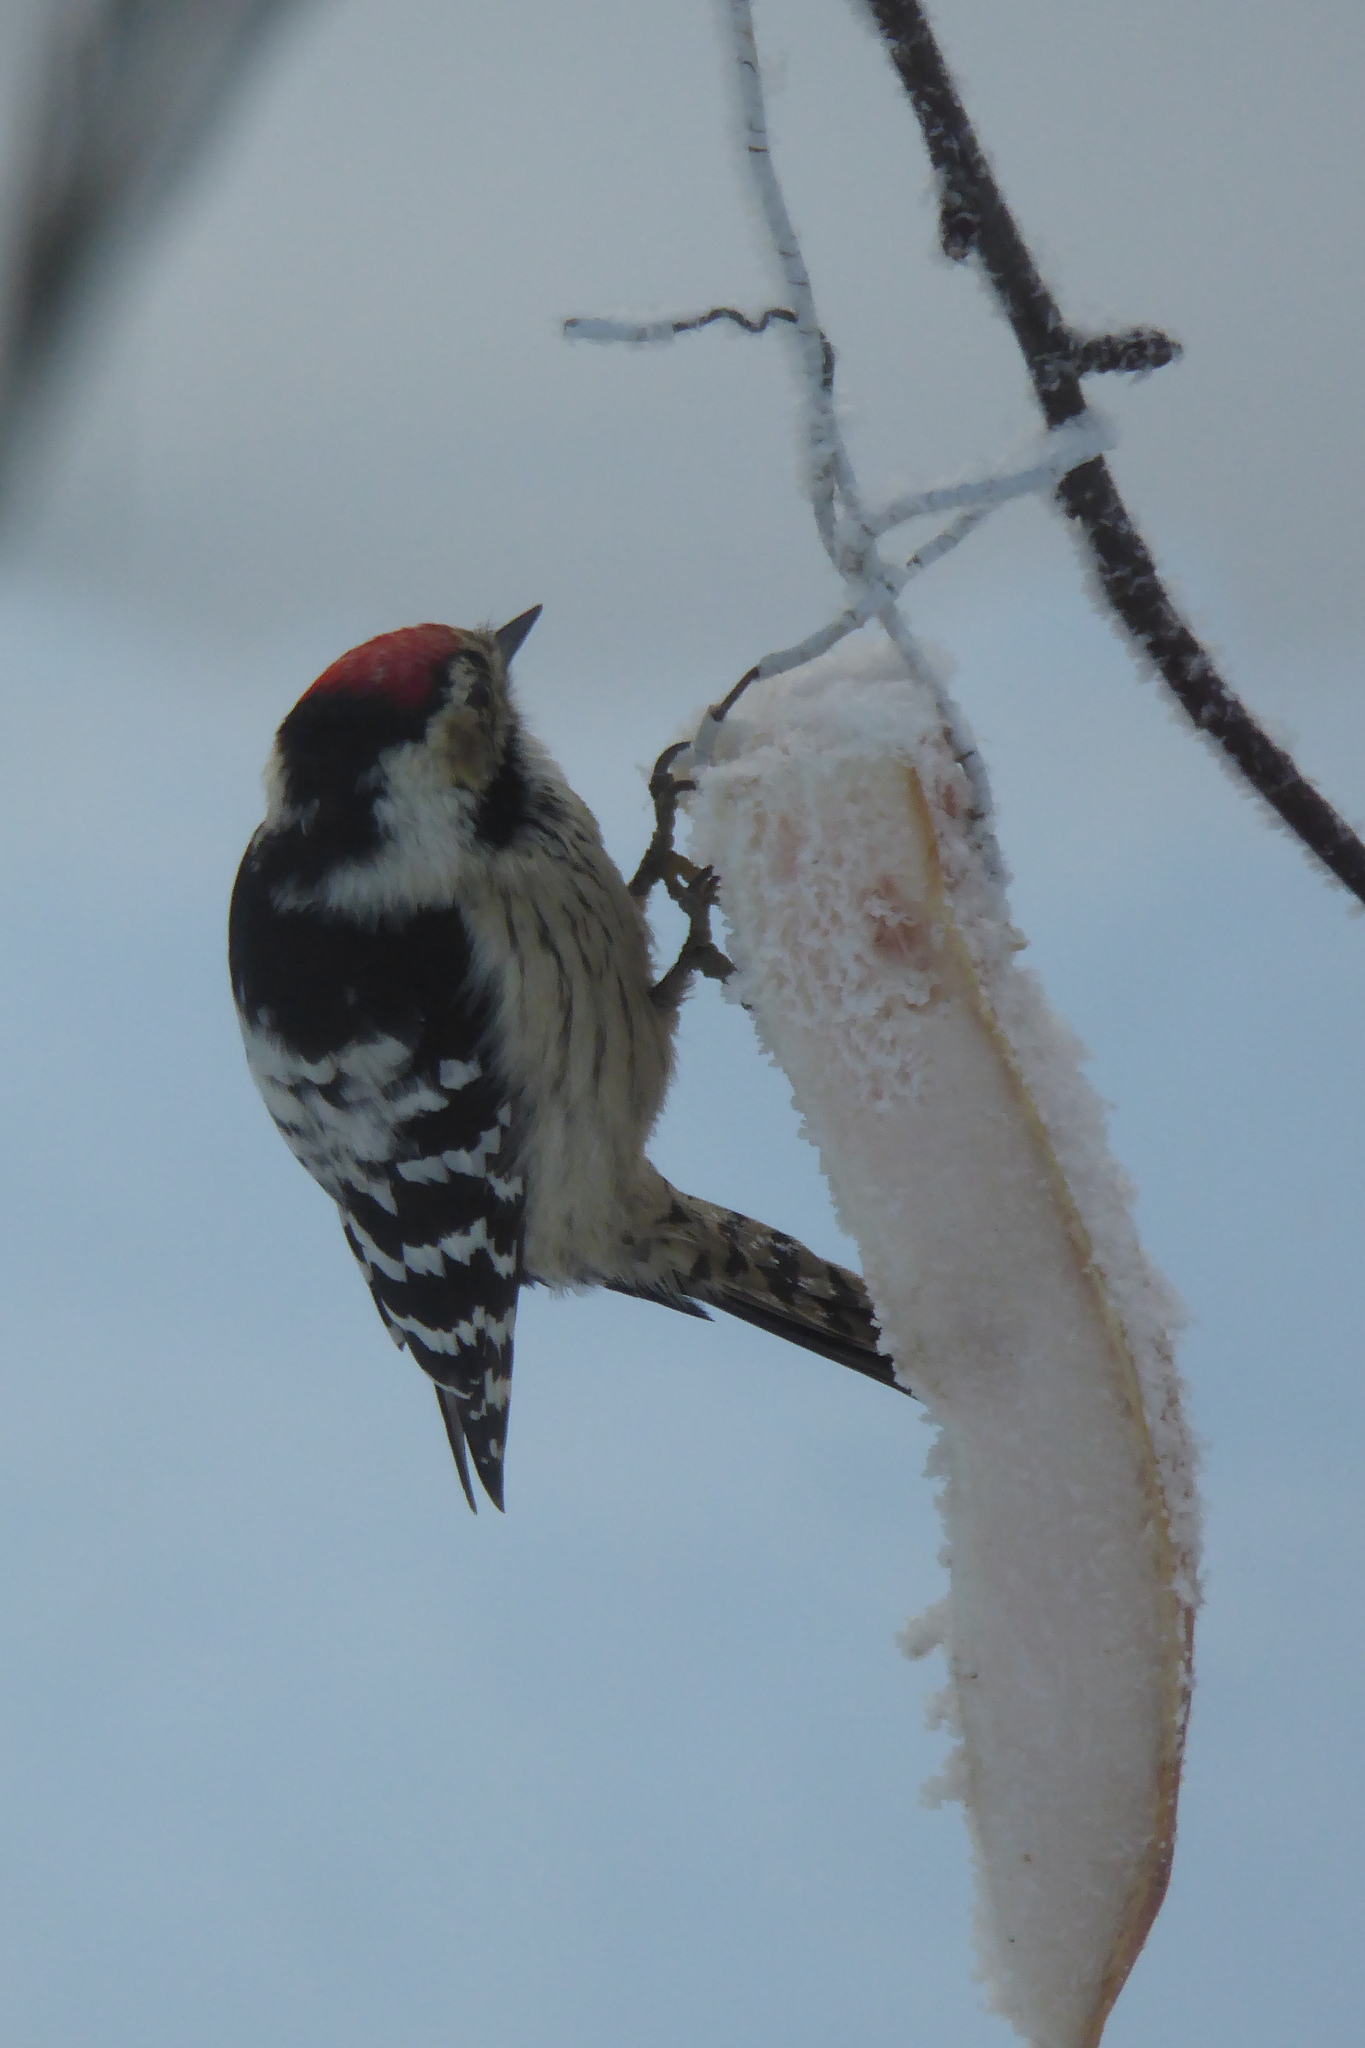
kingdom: Animalia
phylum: Chordata
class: Aves
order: Piciformes
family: Picidae
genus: Dryobates
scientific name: Dryobates minor
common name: Lesser spotted woodpecker
